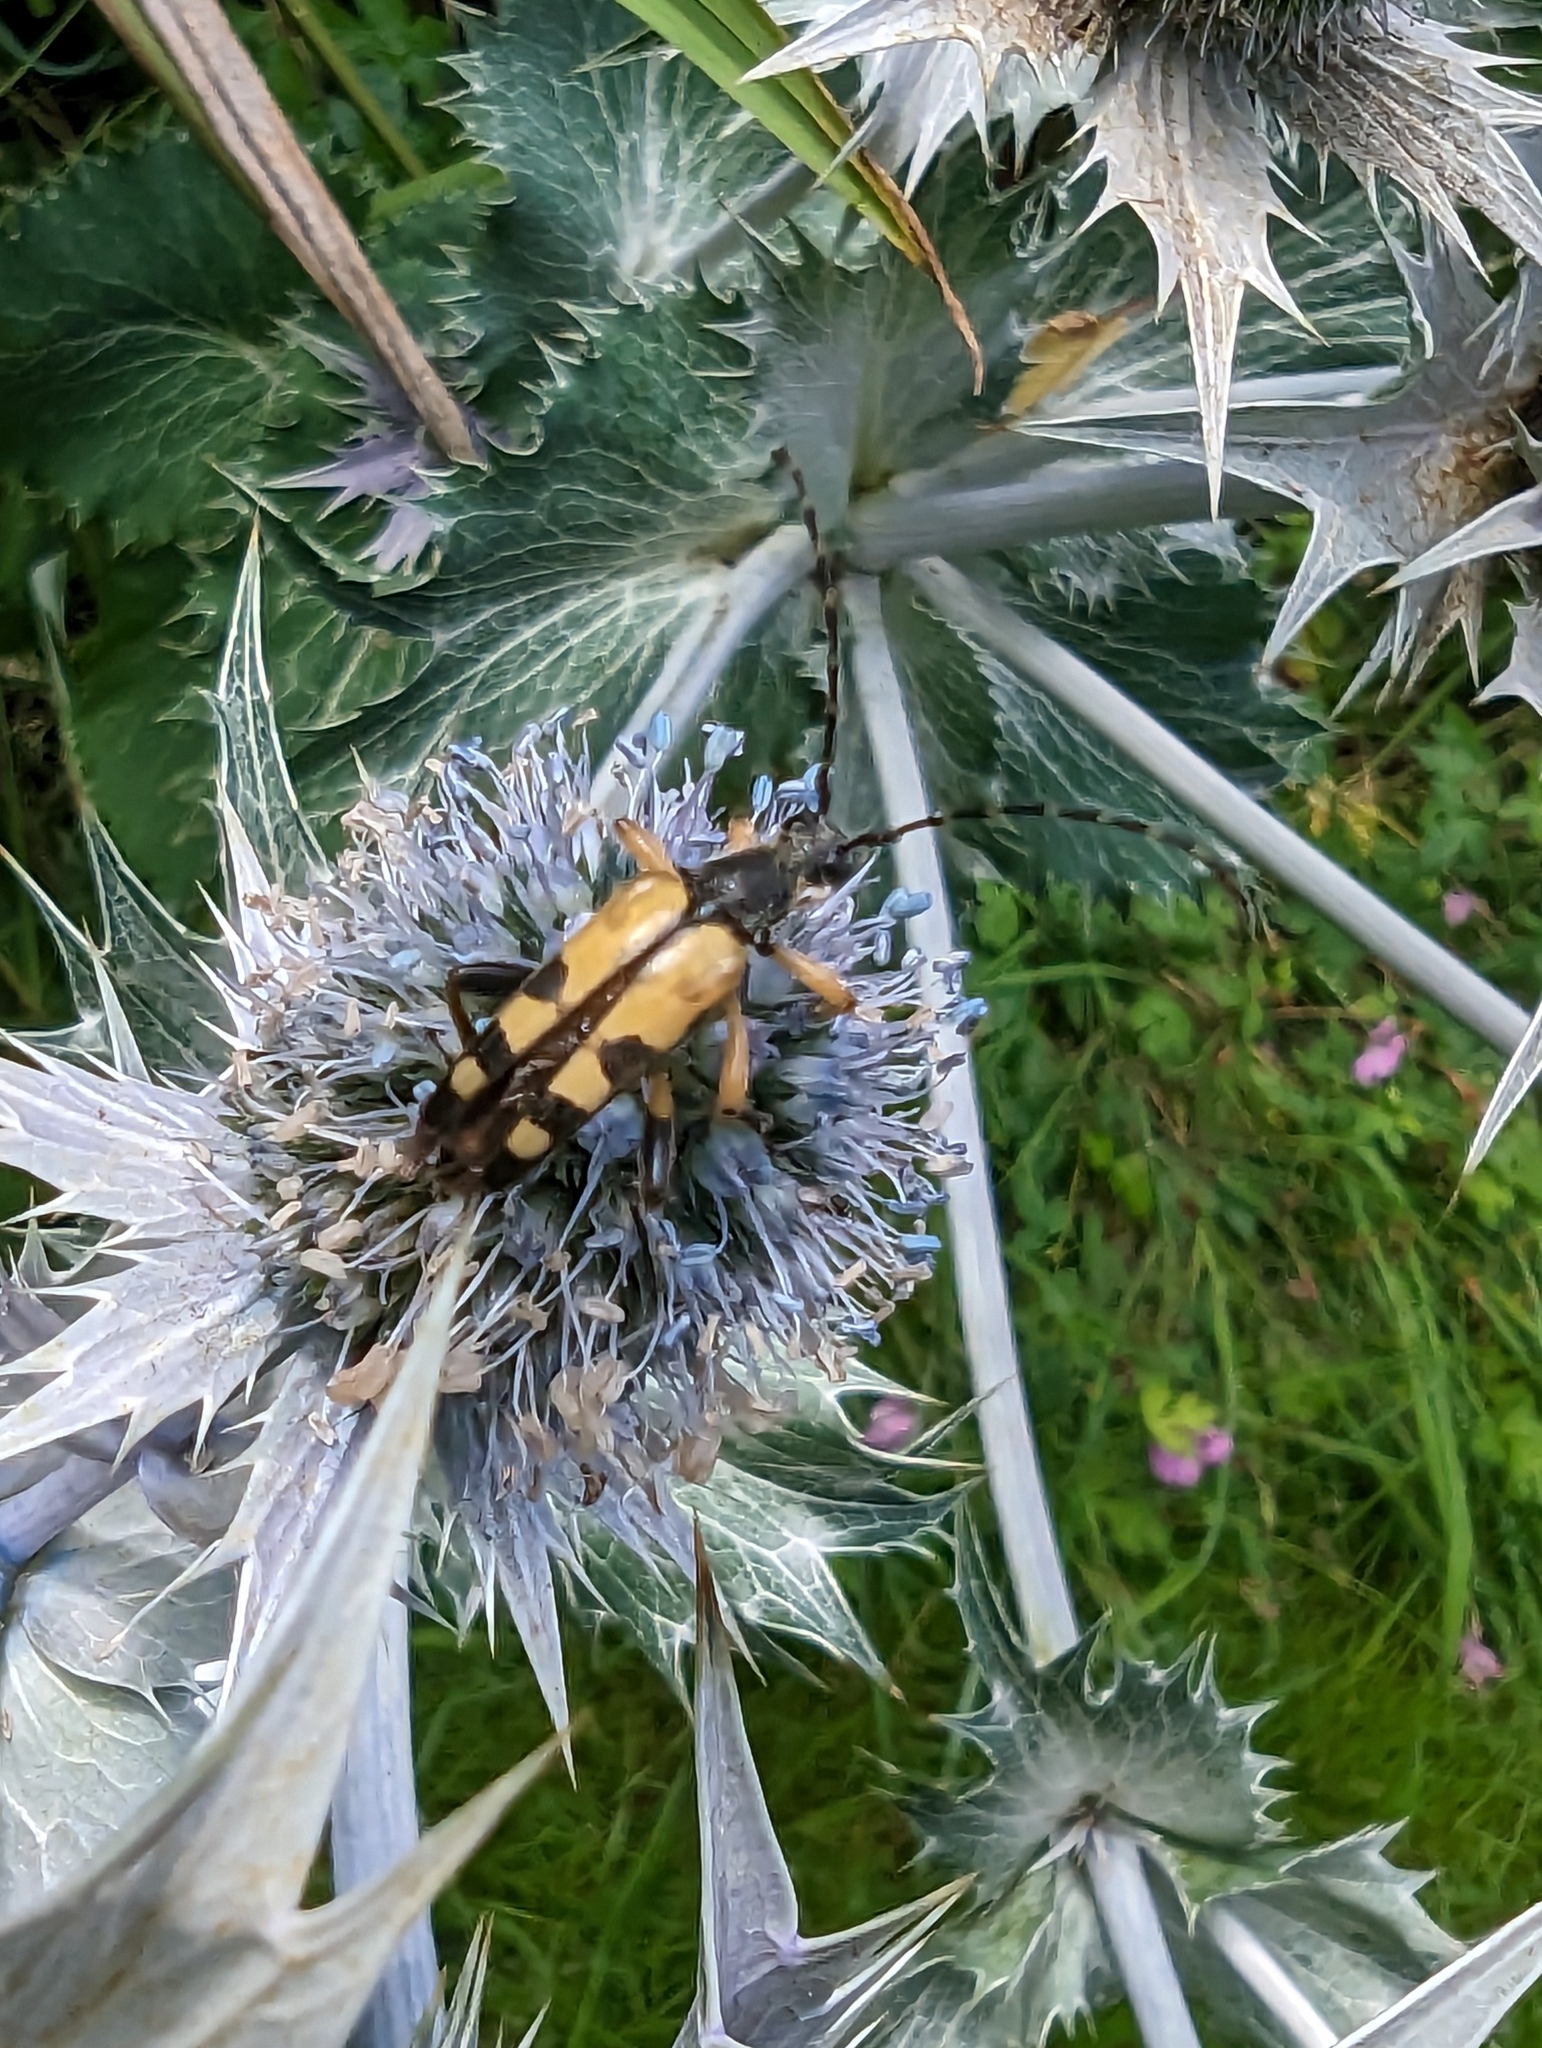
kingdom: Animalia
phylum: Arthropoda
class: Insecta
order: Coleoptera
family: Cerambycidae
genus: Rutpela
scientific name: Rutpela maculata
